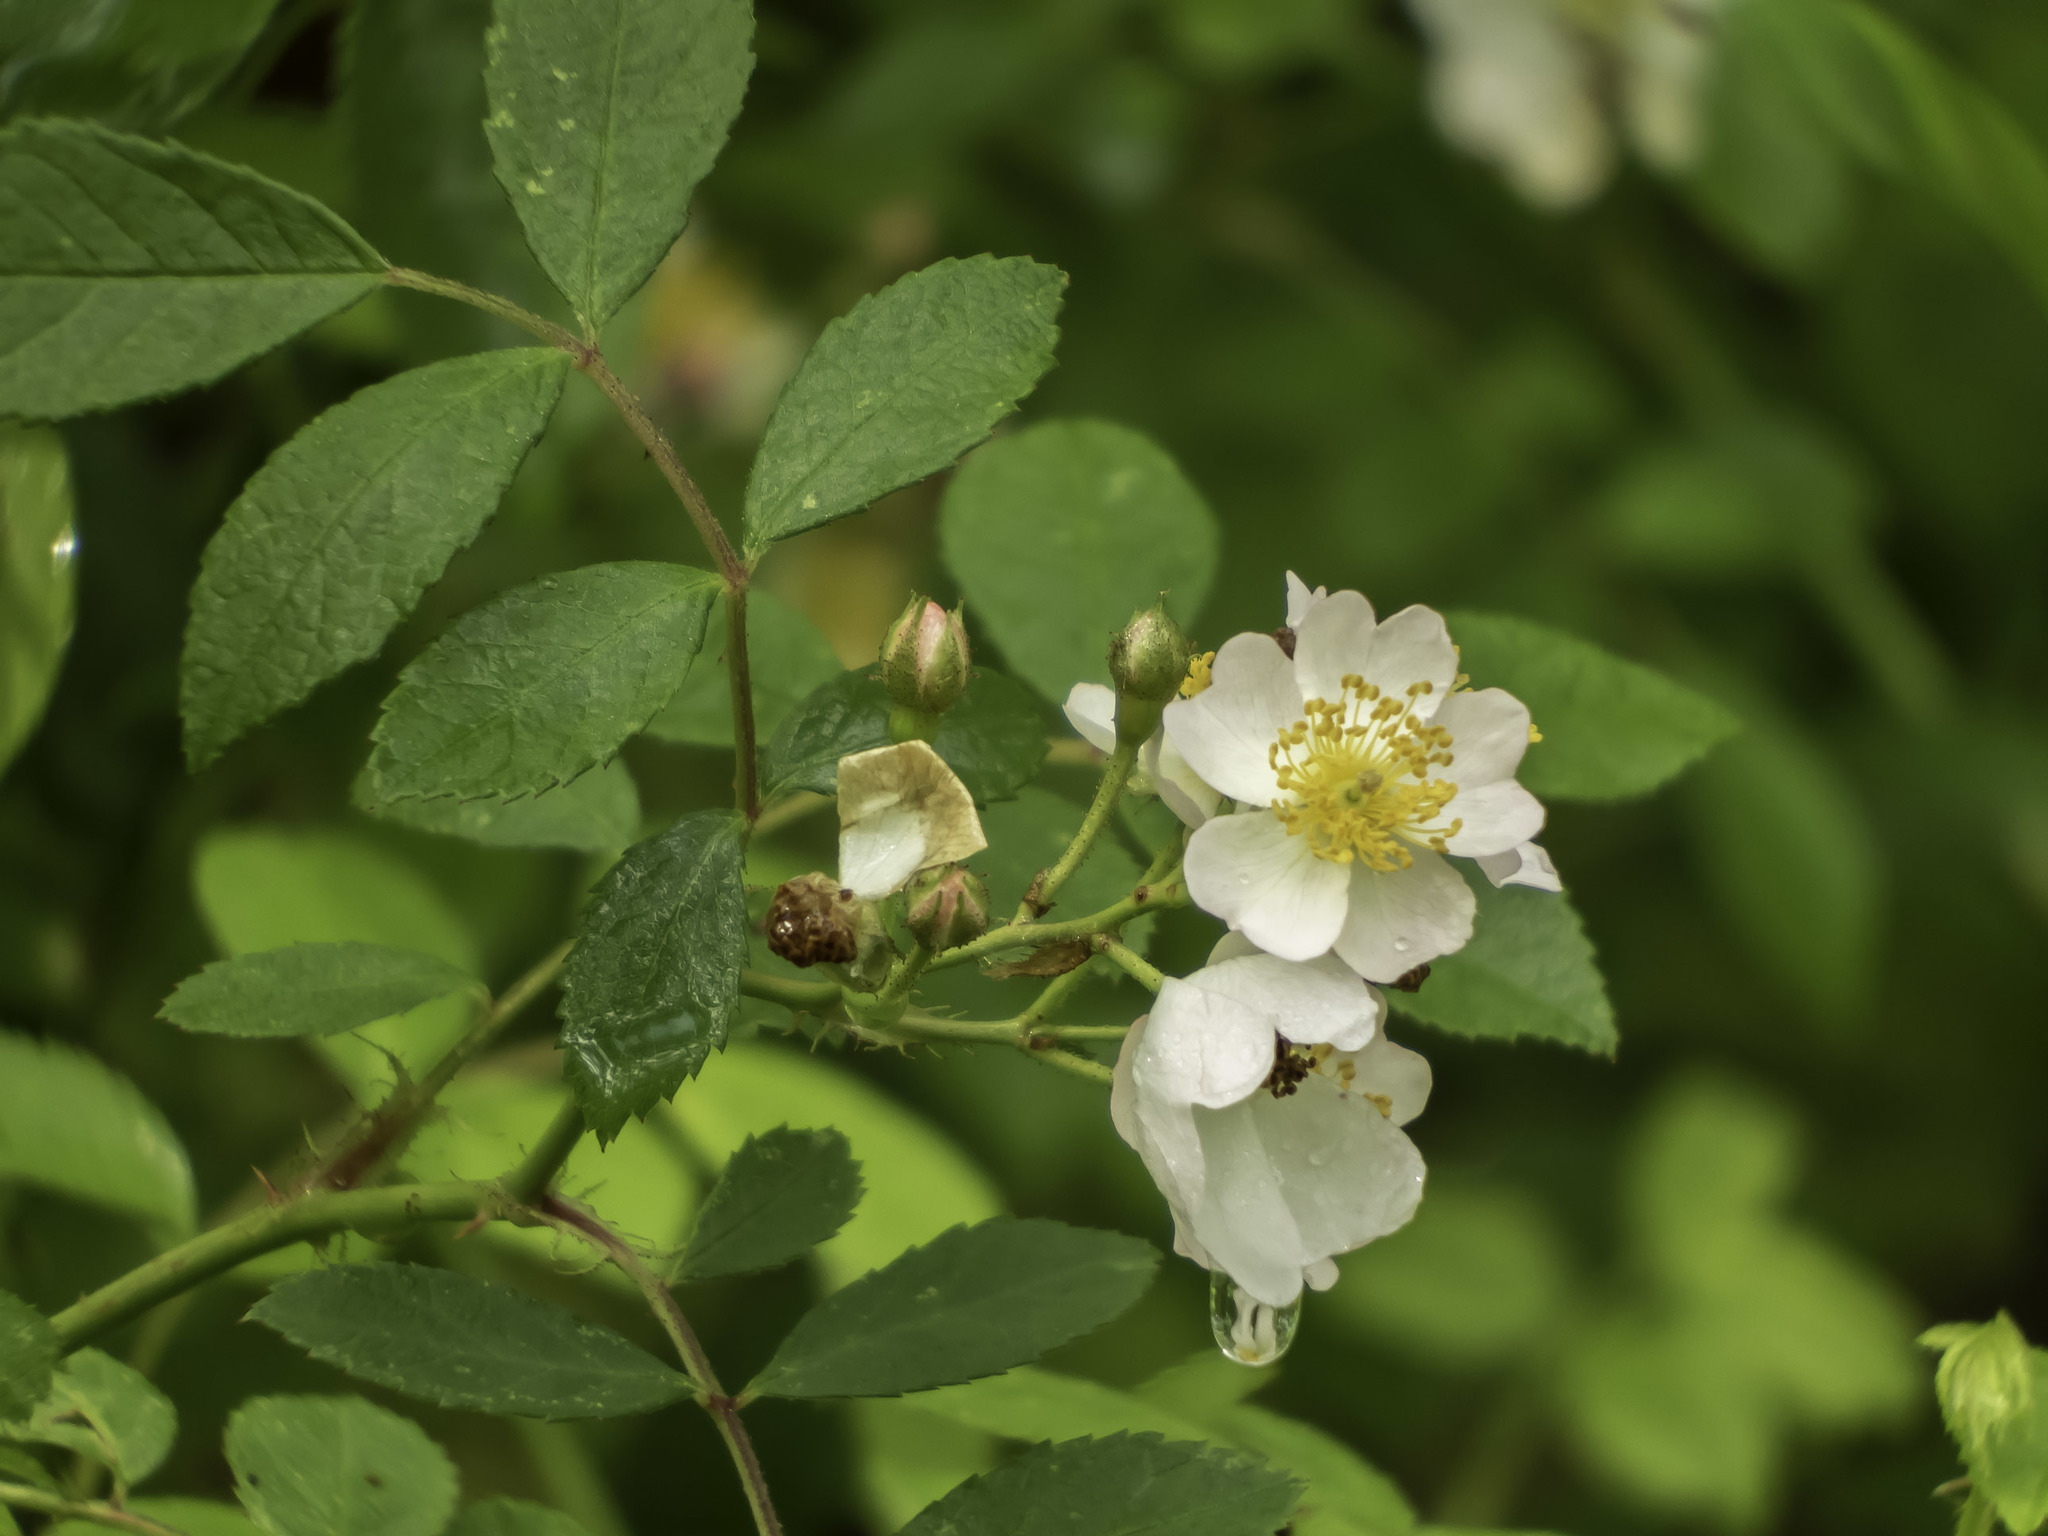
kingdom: Plantae
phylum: Tracheophyta
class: Magnoliopsida
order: Rosales
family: Rosaceae
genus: Rosa
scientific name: Rosa multiflora
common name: Multiflora rose
